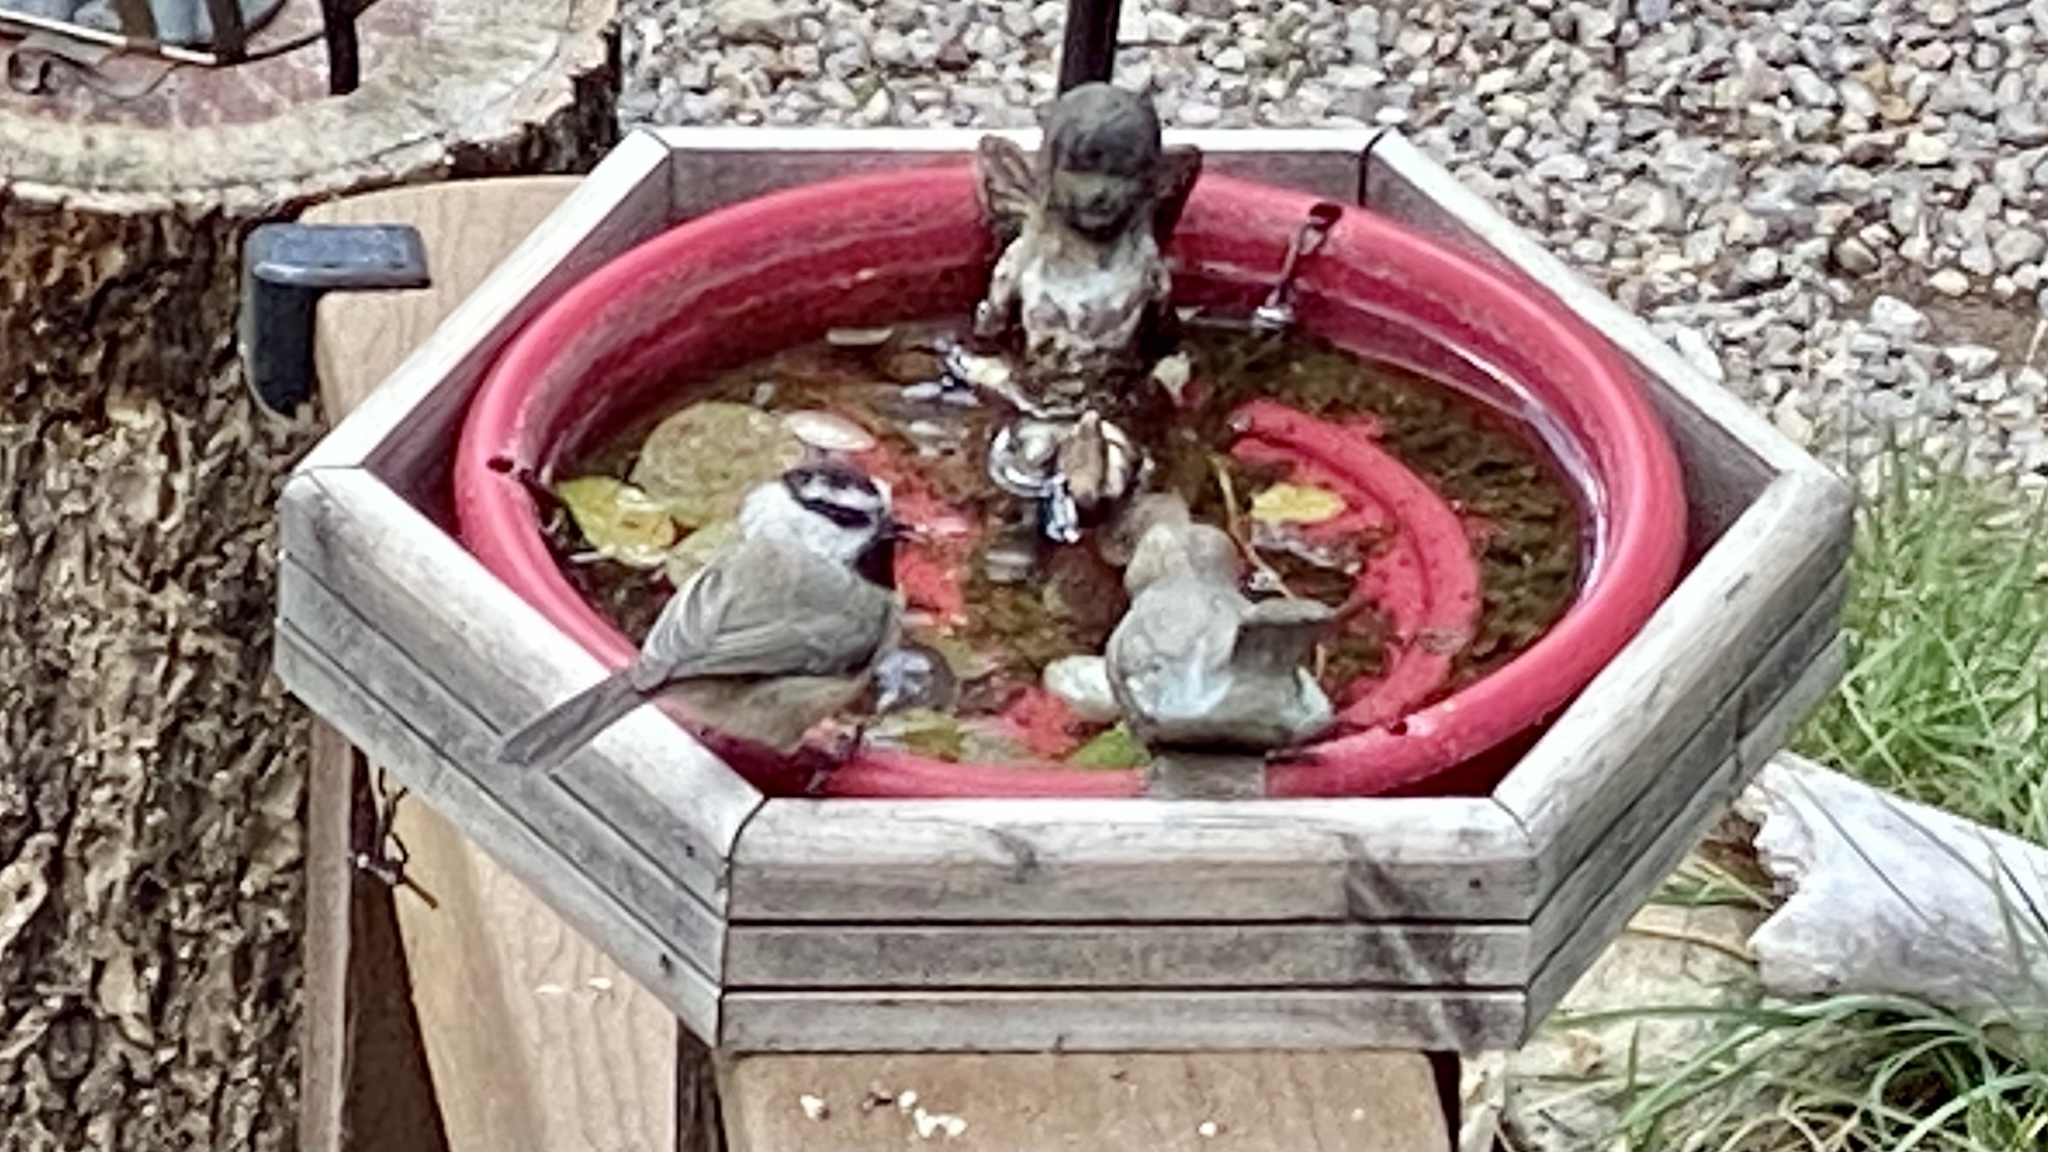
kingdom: Animalia
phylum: Chordata
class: Aves
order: Passeriformes
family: Paridae
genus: Poecile
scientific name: Poecile gambeli
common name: Mountain chickadee
